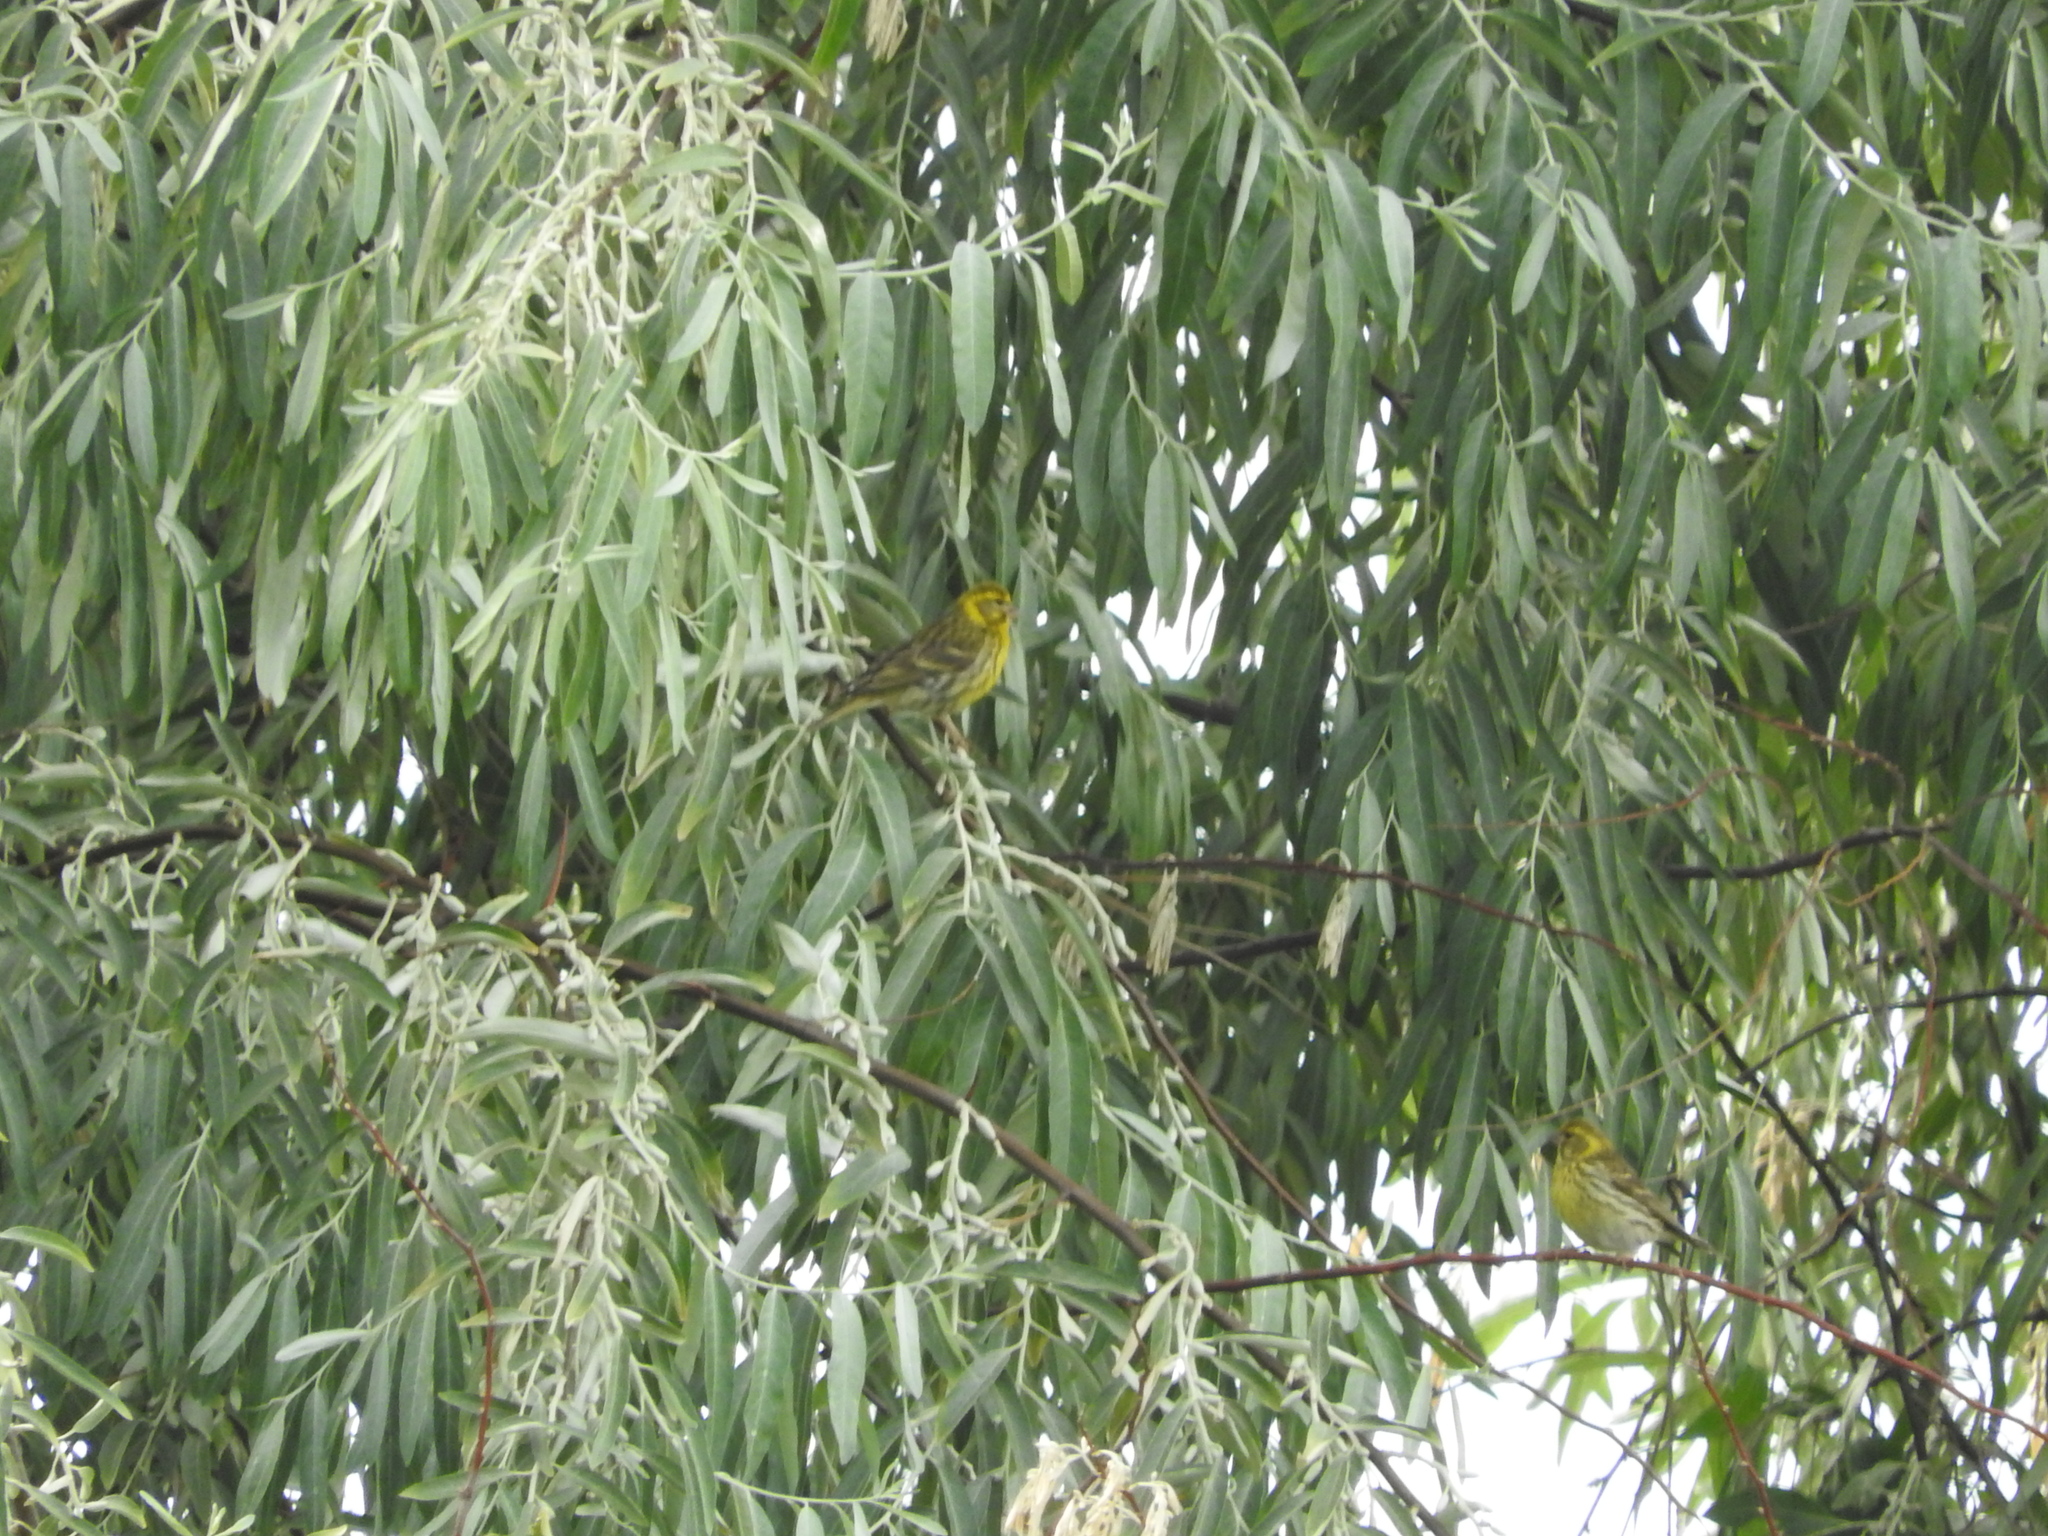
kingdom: Animalia
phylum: Chordata
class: Aves
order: Passeriformes
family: Fringillidae
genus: Serinus
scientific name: Serinus serinus
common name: European serin
